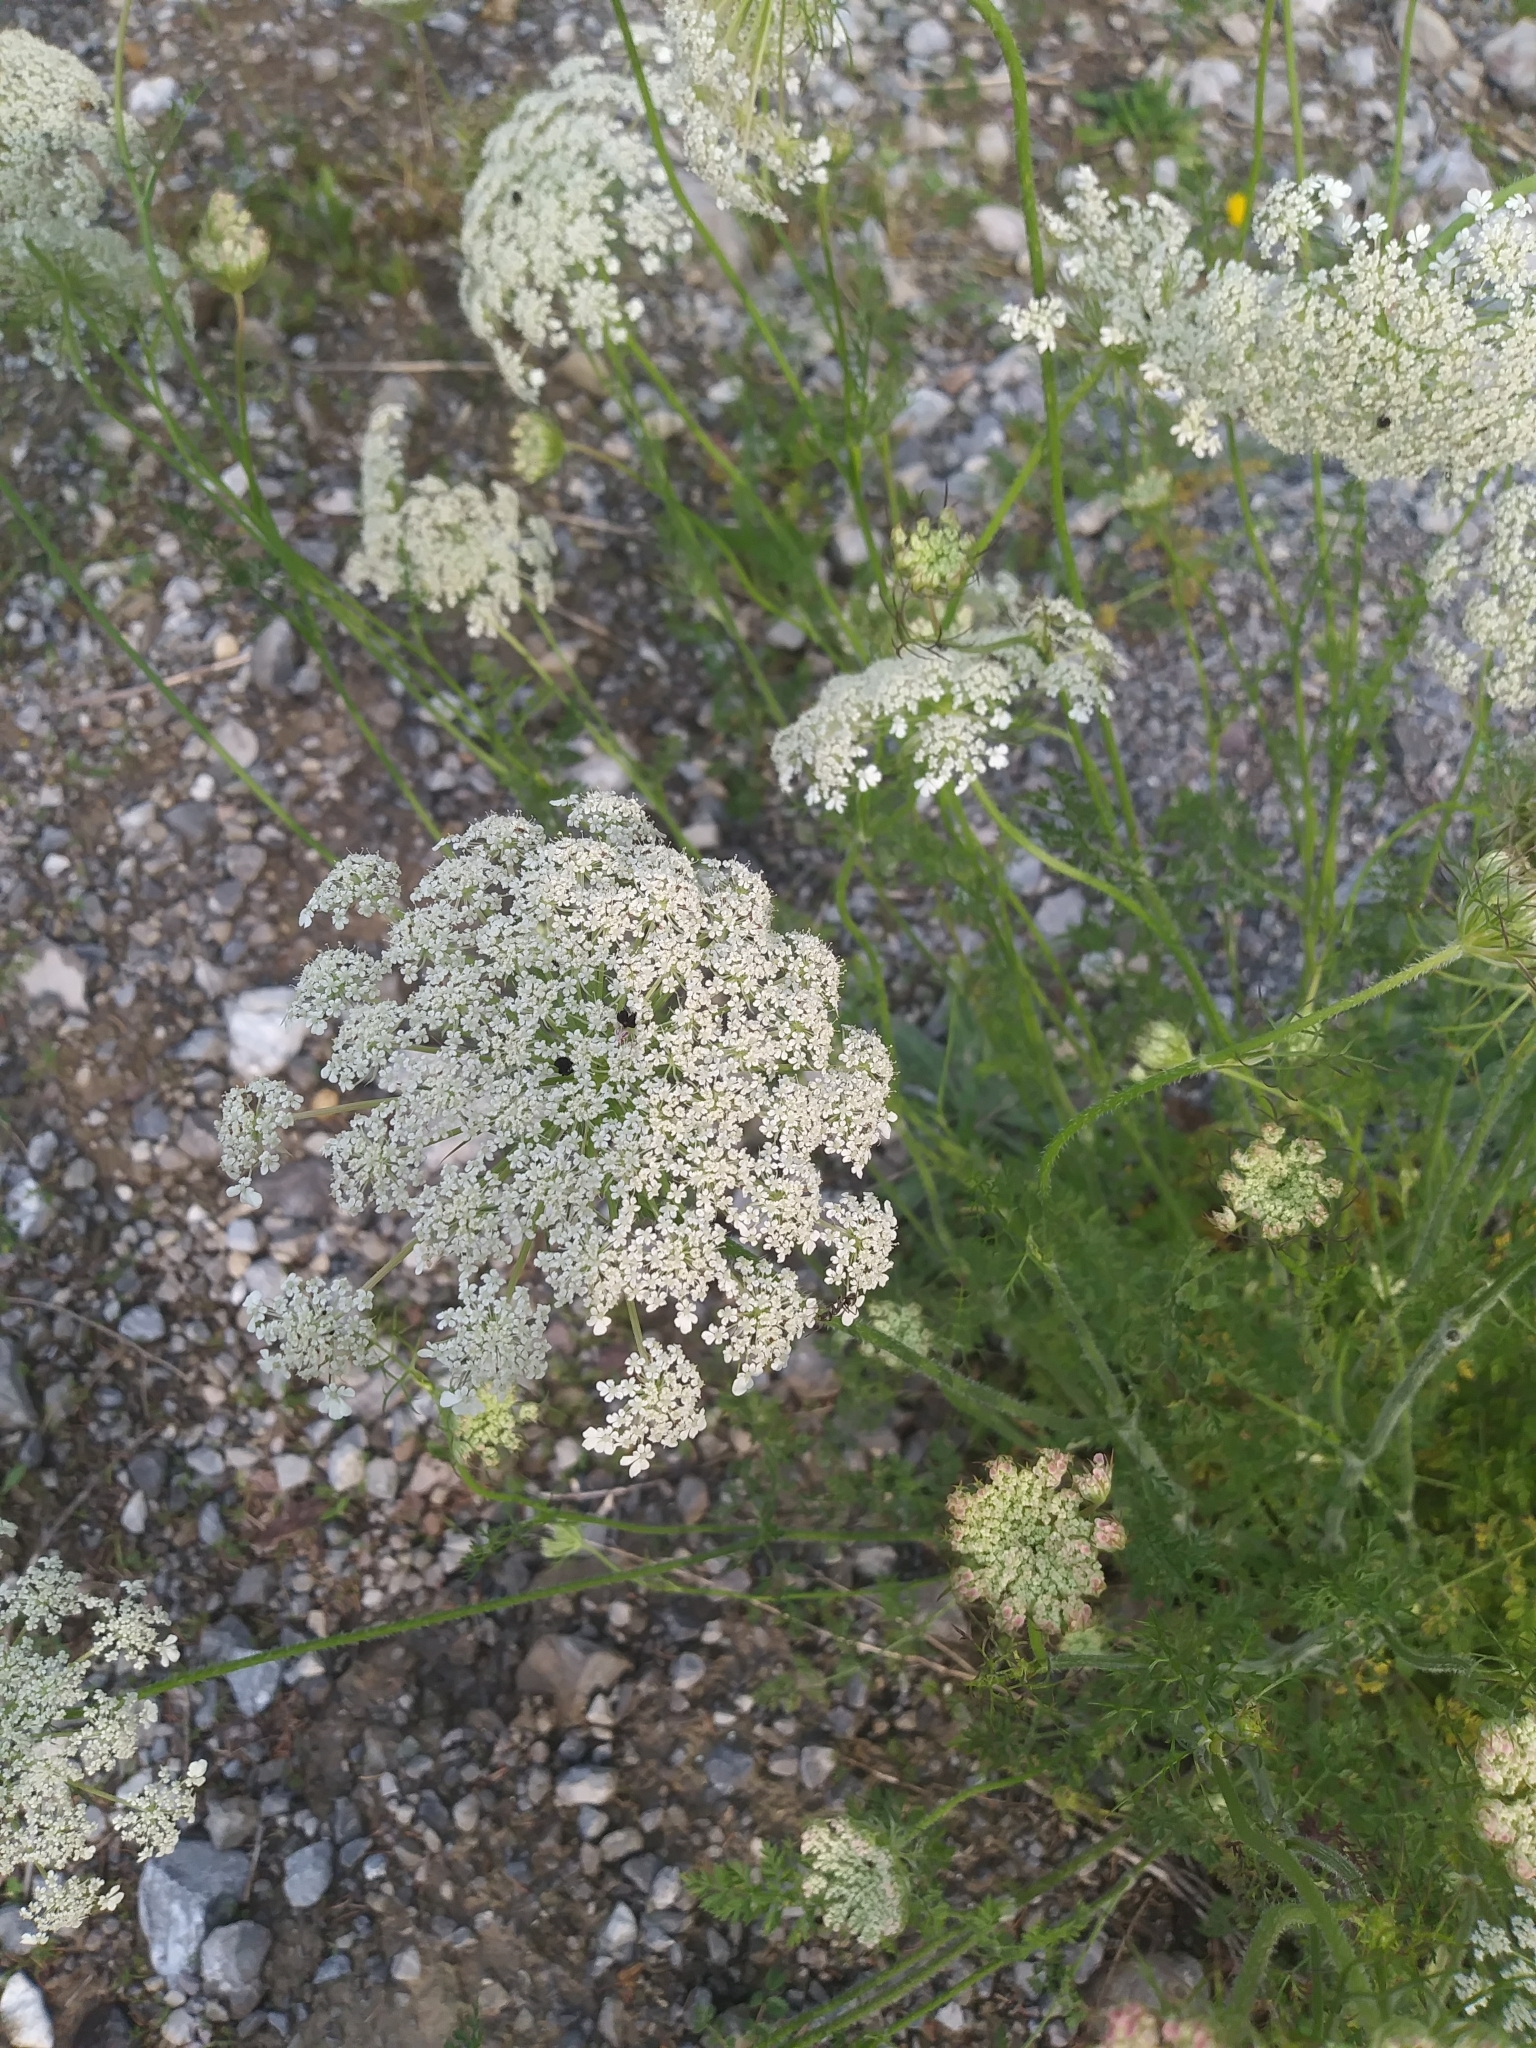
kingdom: Plantae
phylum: Tracheophyta
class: Magnoliopsida
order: Apiales
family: Apiaceae
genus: Daucus
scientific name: Daucus carota
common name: Wild carrot
